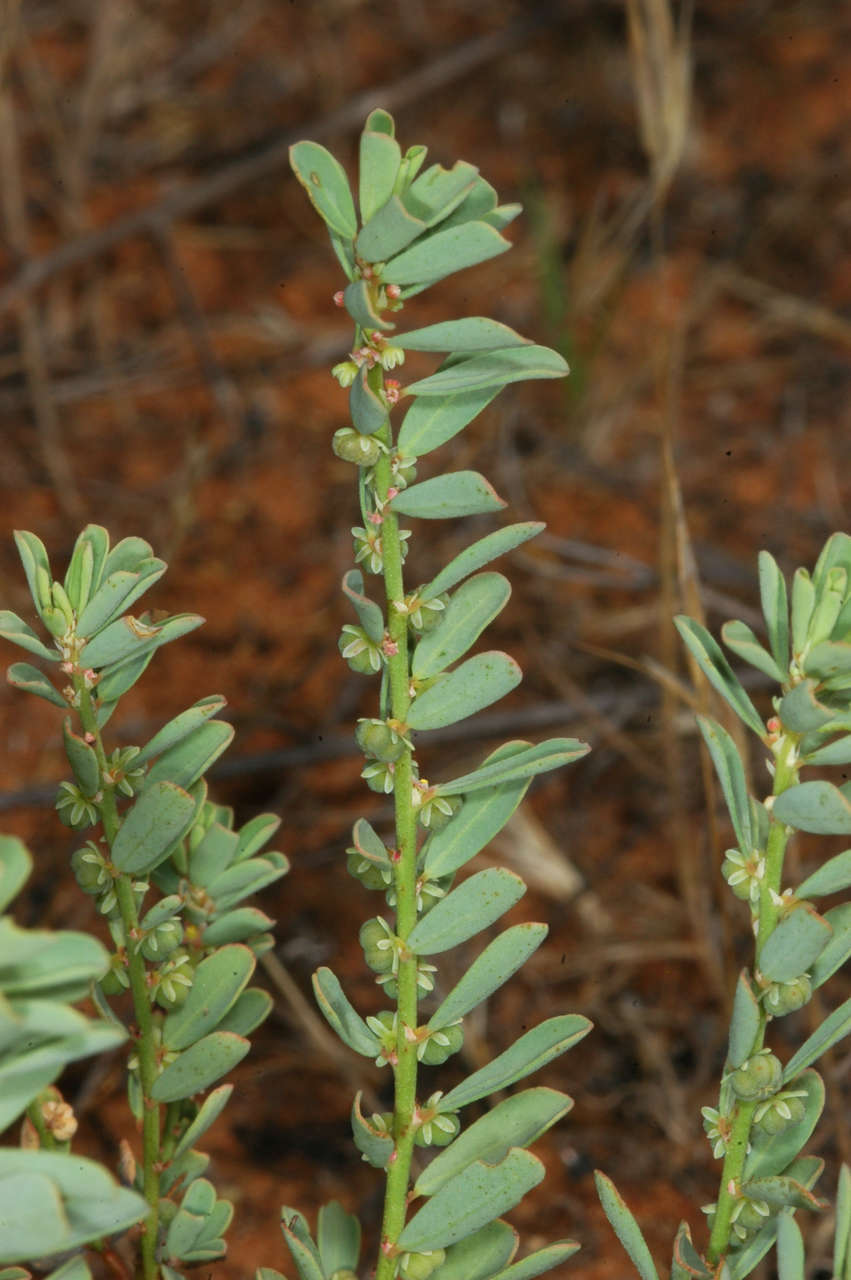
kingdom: Plantae
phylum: Tracheophyta
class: Magnoliopsida
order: Malpighiales
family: Phyllanthaceae
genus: Phyllanthus
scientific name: Phyllanthus lacunarius
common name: Caraweena-clover
